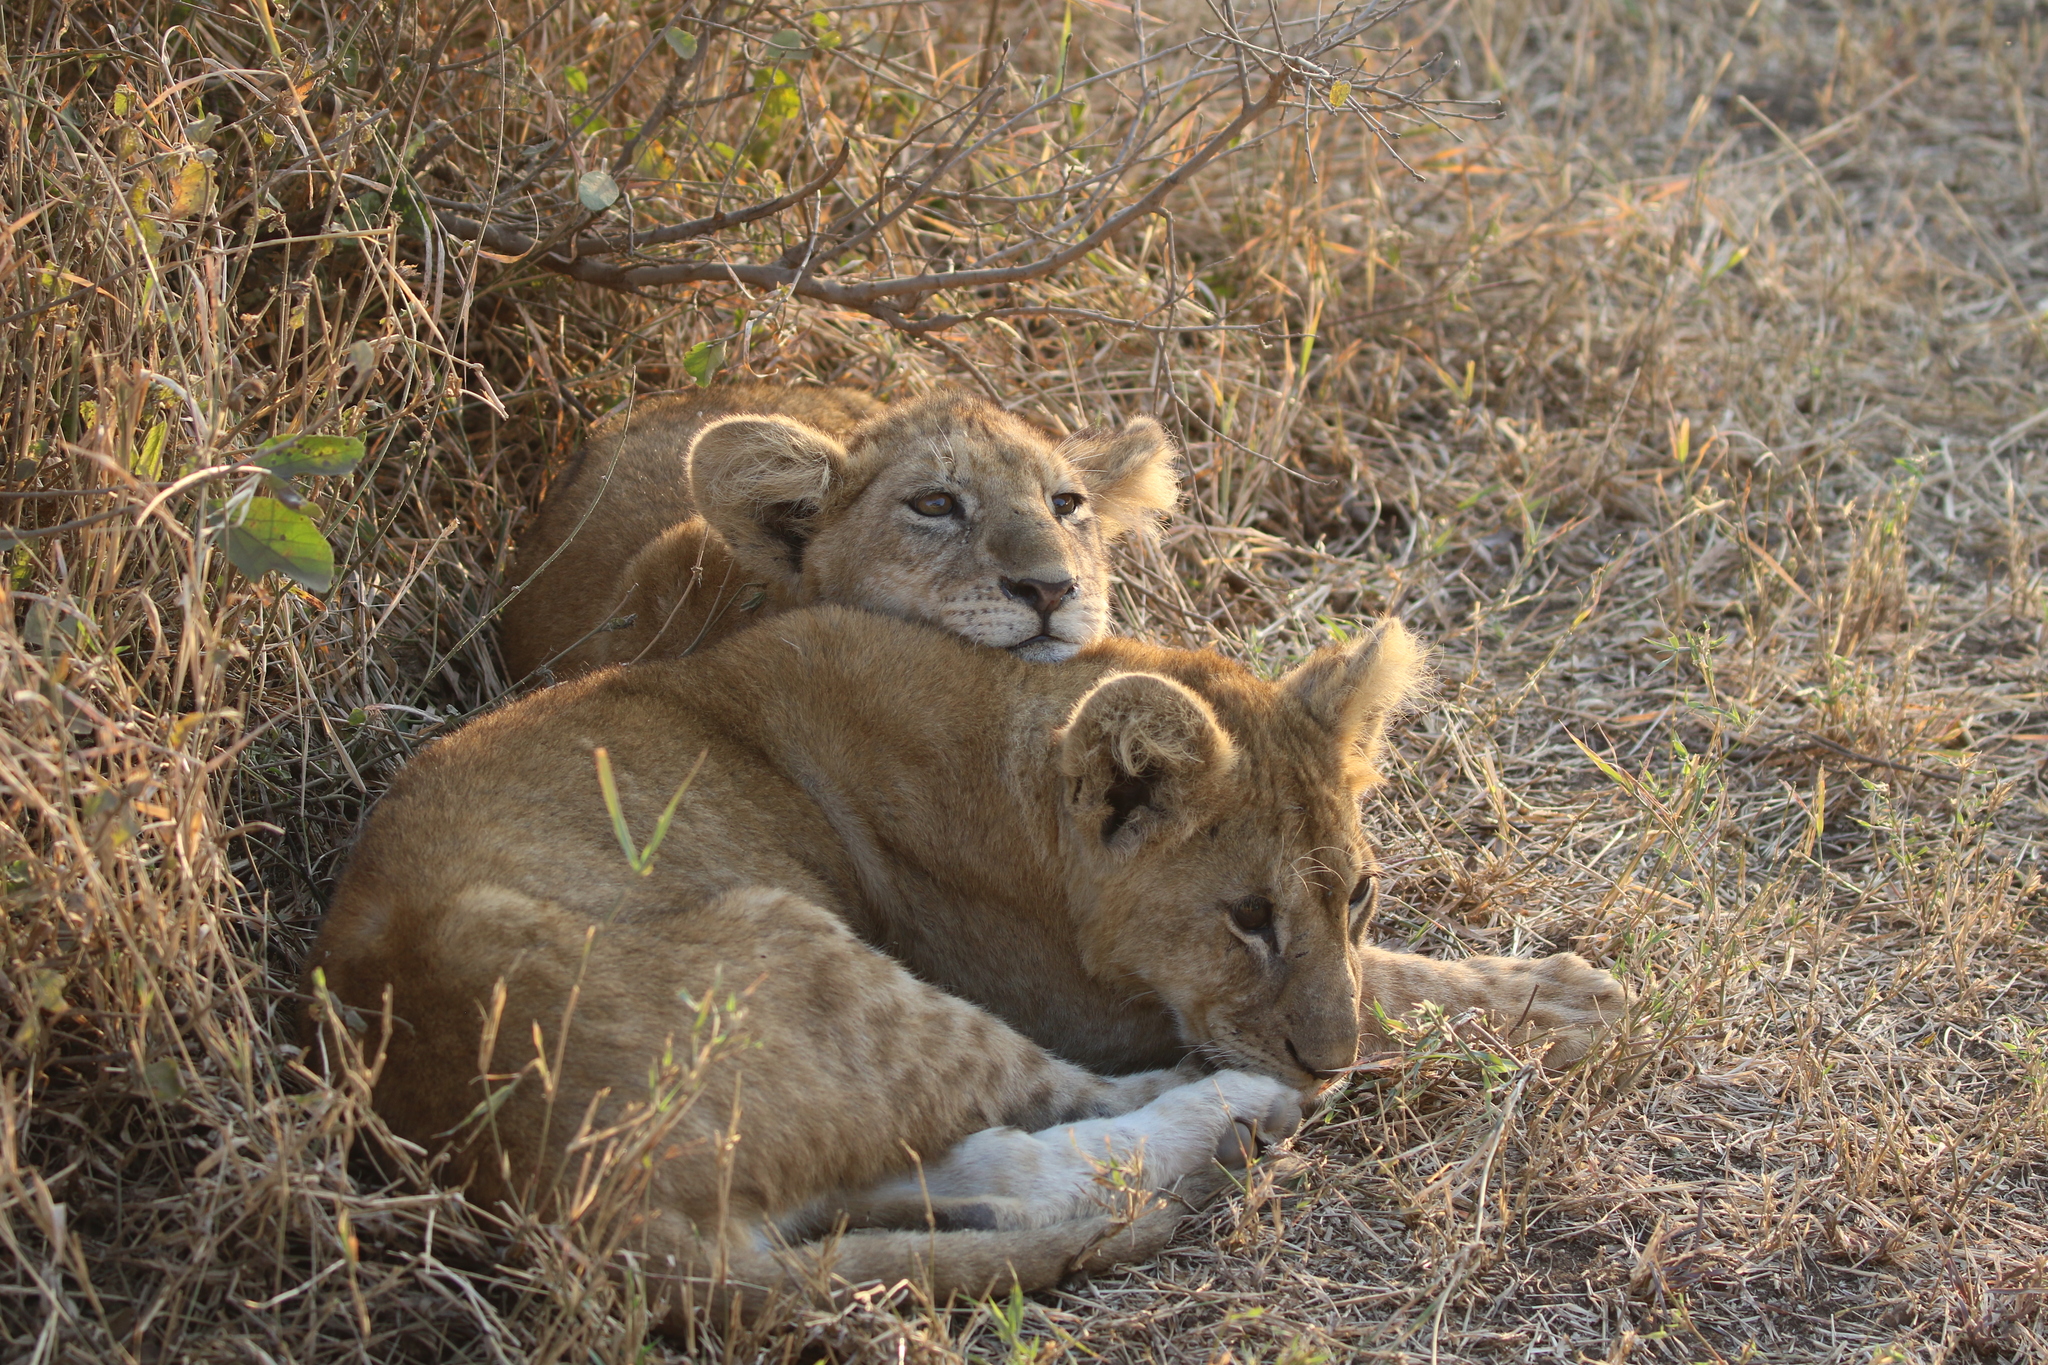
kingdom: Animalia
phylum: Chordata
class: Mammalia
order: Carnivora
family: Felidae
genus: Panthera
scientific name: Panthera leo
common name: Lion
